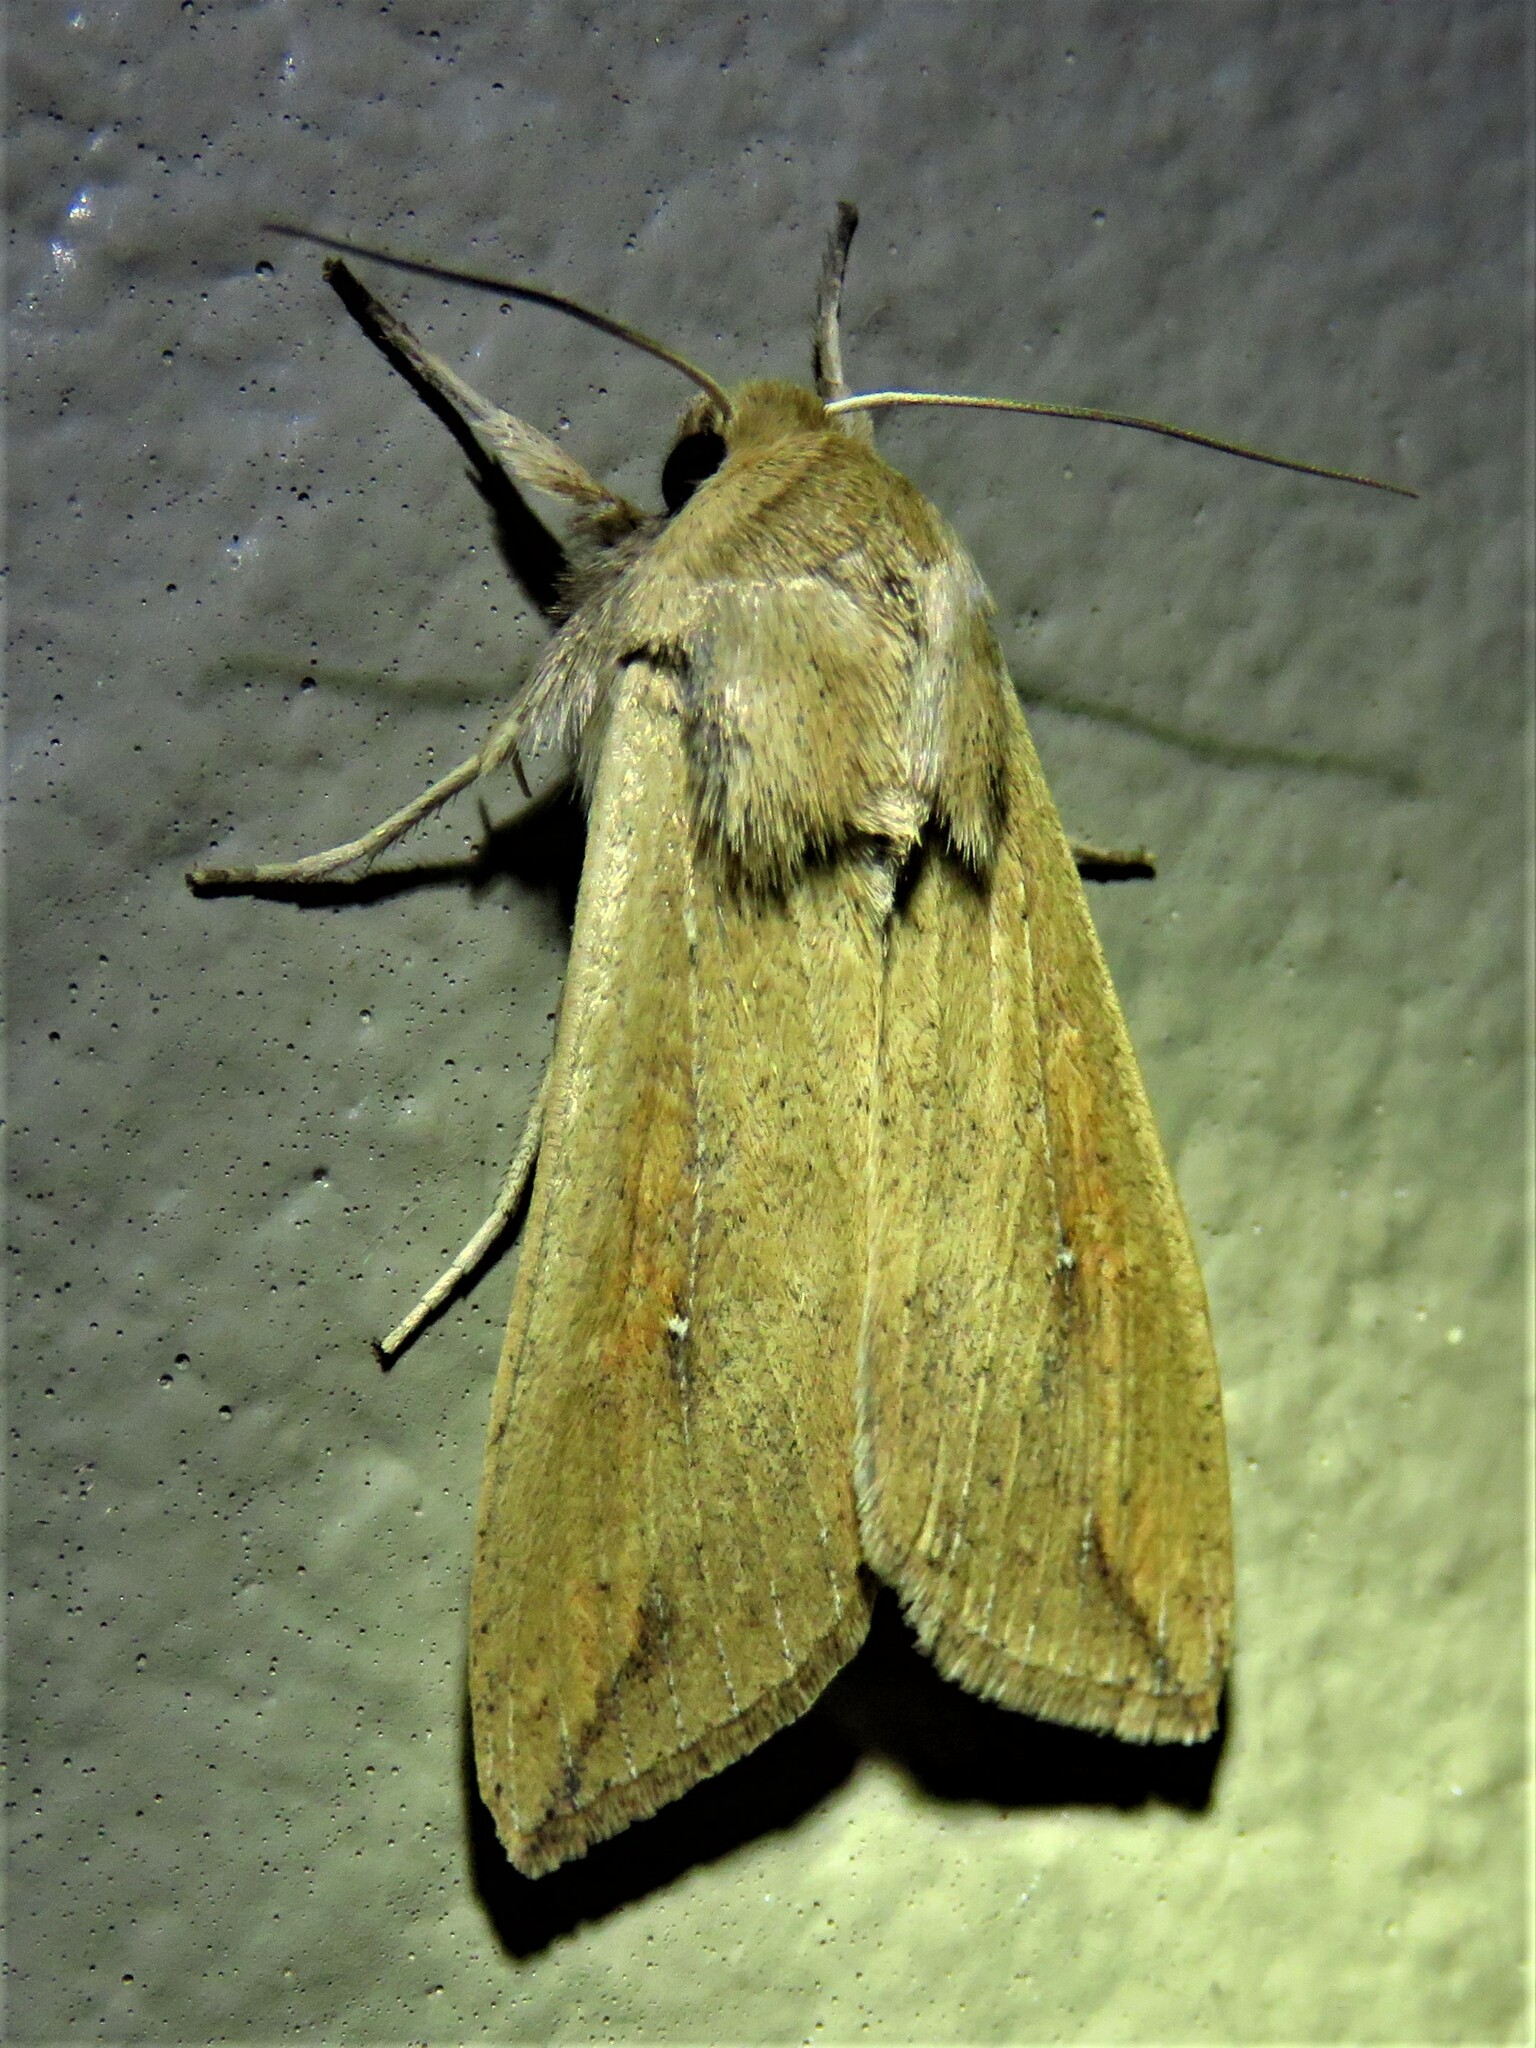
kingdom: Animalia
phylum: Arthropoda
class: Insecta
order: Lepidoptera
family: Noctuidae
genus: Mythimna
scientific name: Mythimna unipuncta
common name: White-speck
